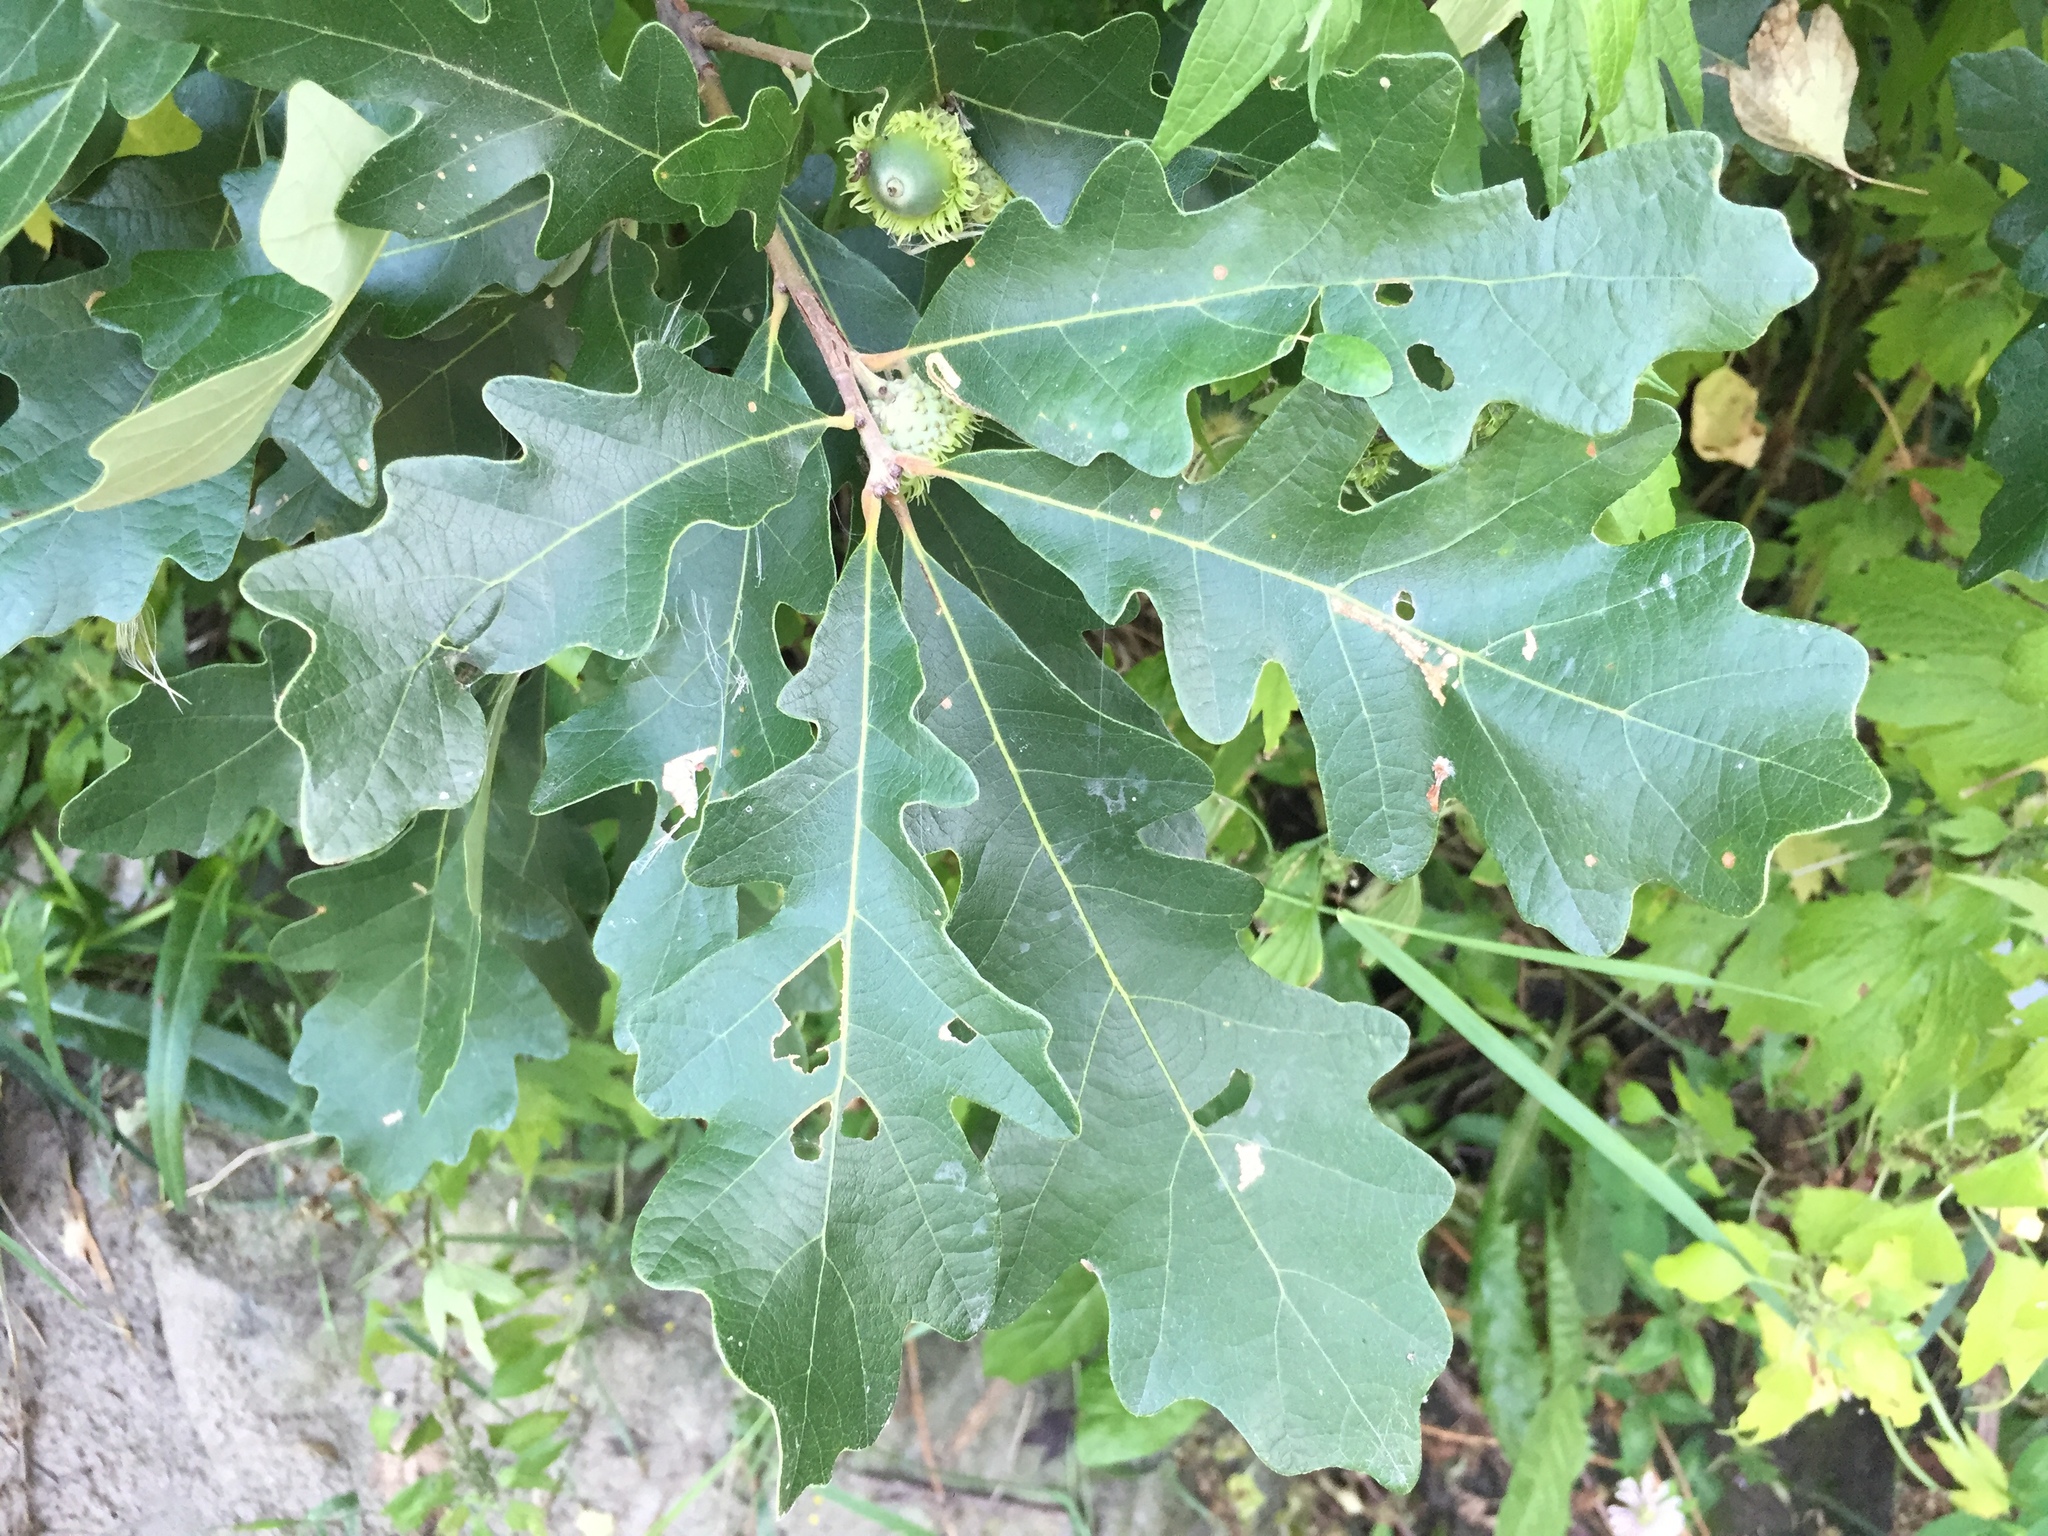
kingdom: Plantae
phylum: Tracheophyta
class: Magnoliopsida
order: Fagales
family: Fagaceae
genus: Quercus
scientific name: Quercus macrocarpa
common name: Bur oak
